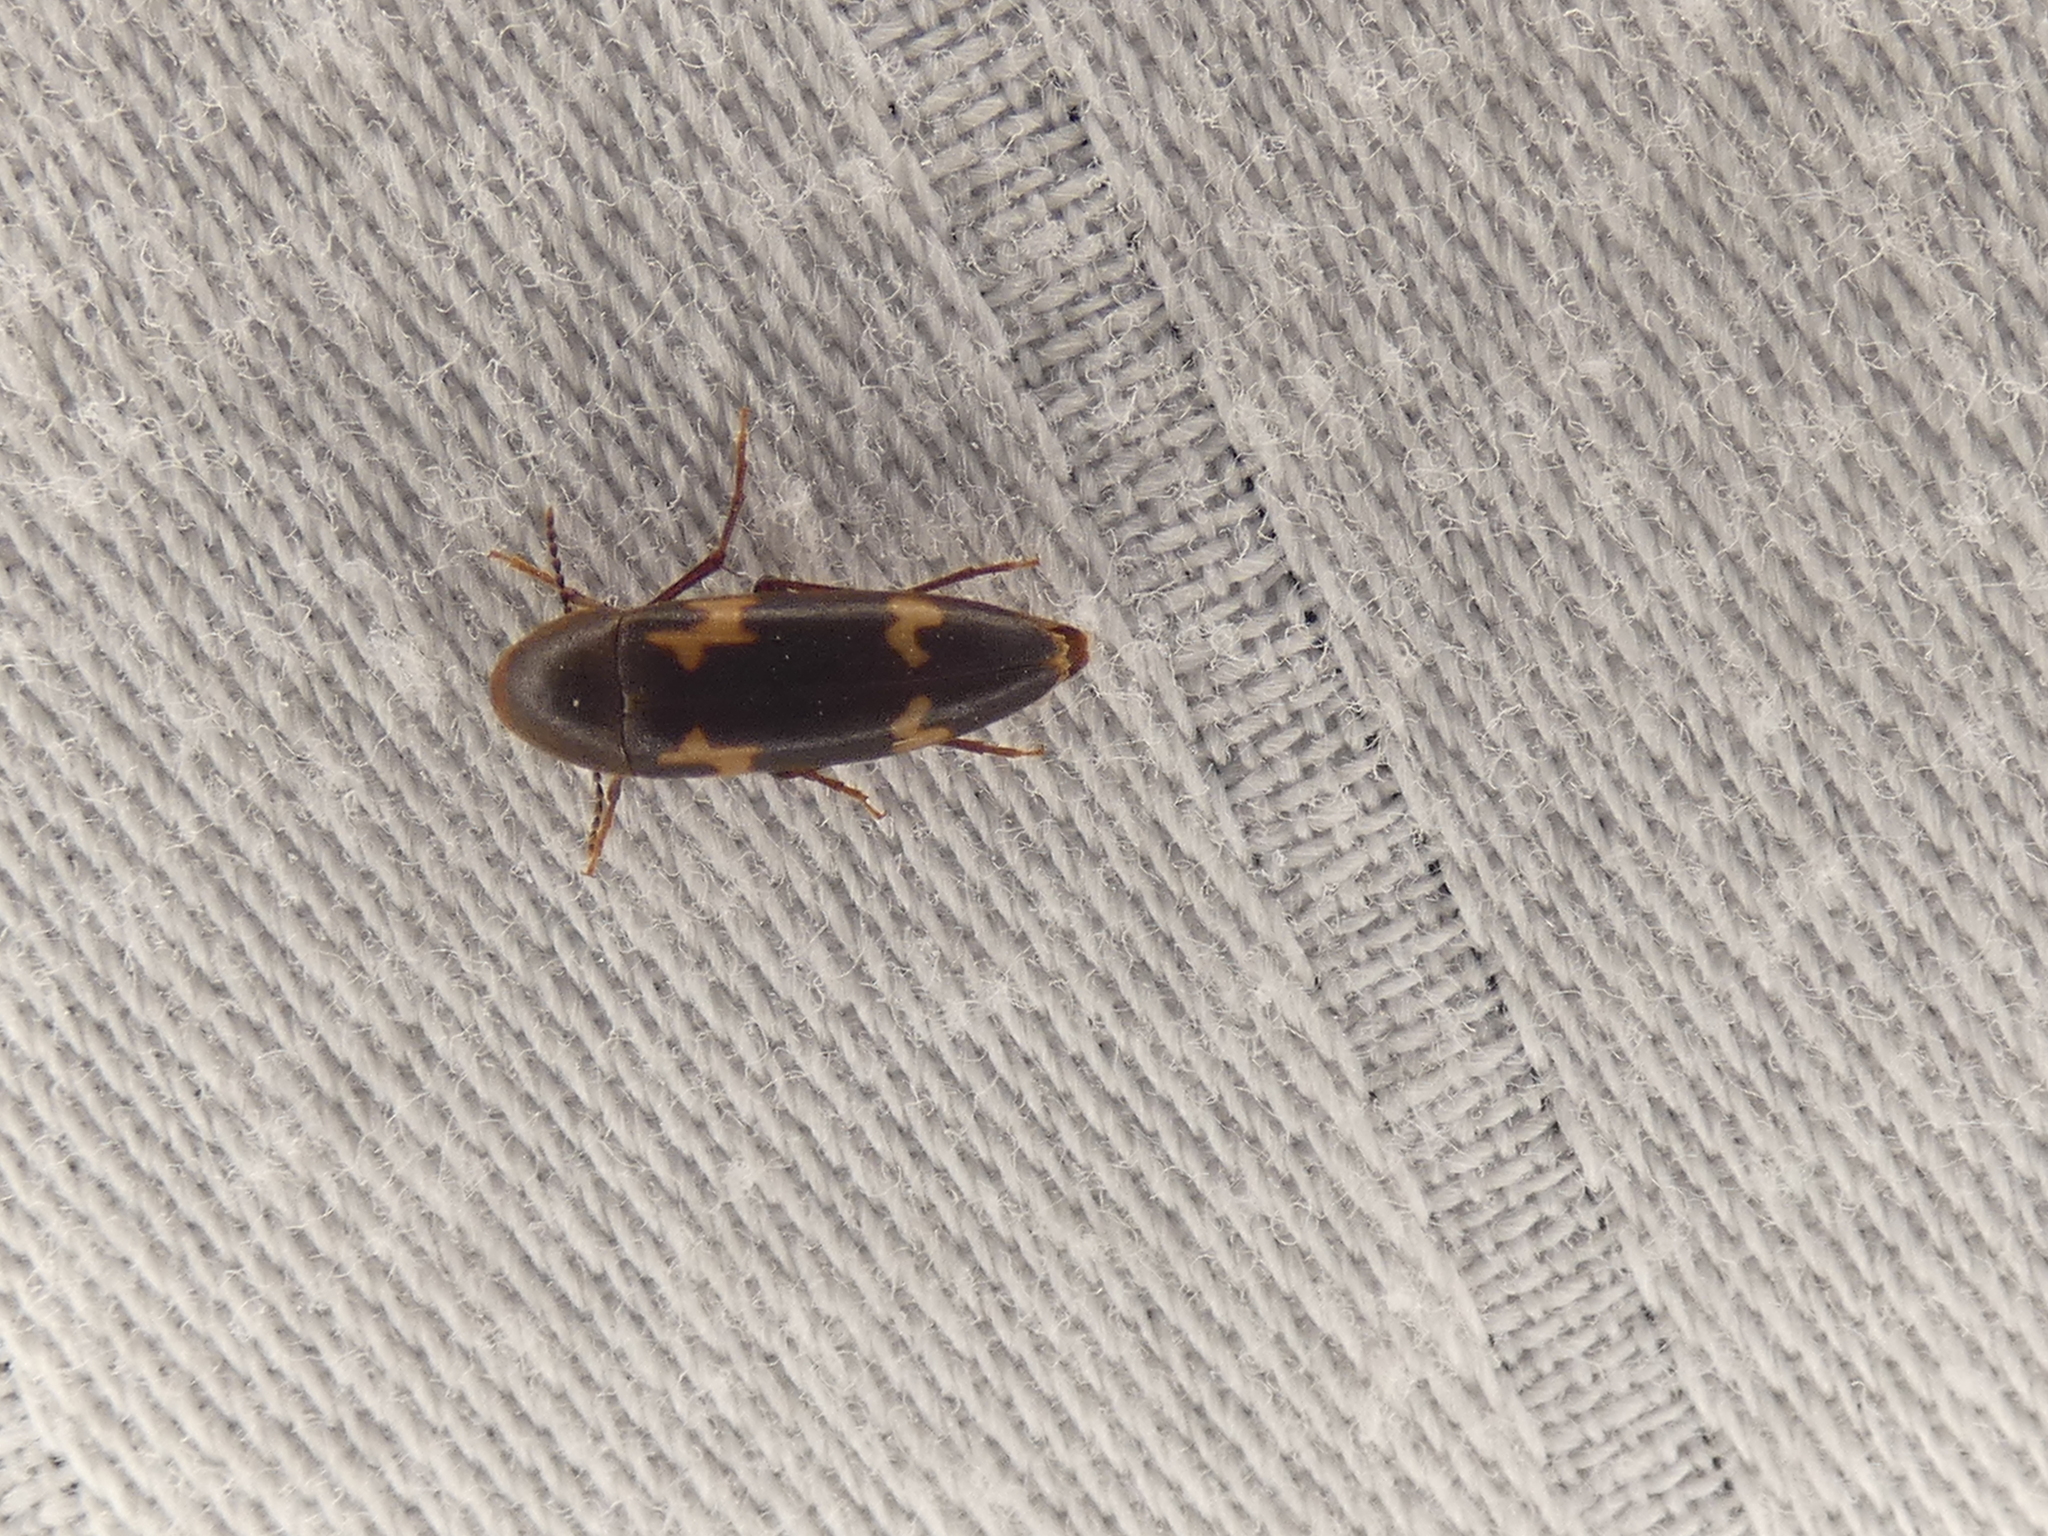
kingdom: Animalia
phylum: Arthropoda
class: Insecta
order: Coleoptera
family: Melandryidae
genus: Dircaea
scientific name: Dircaea liturata
